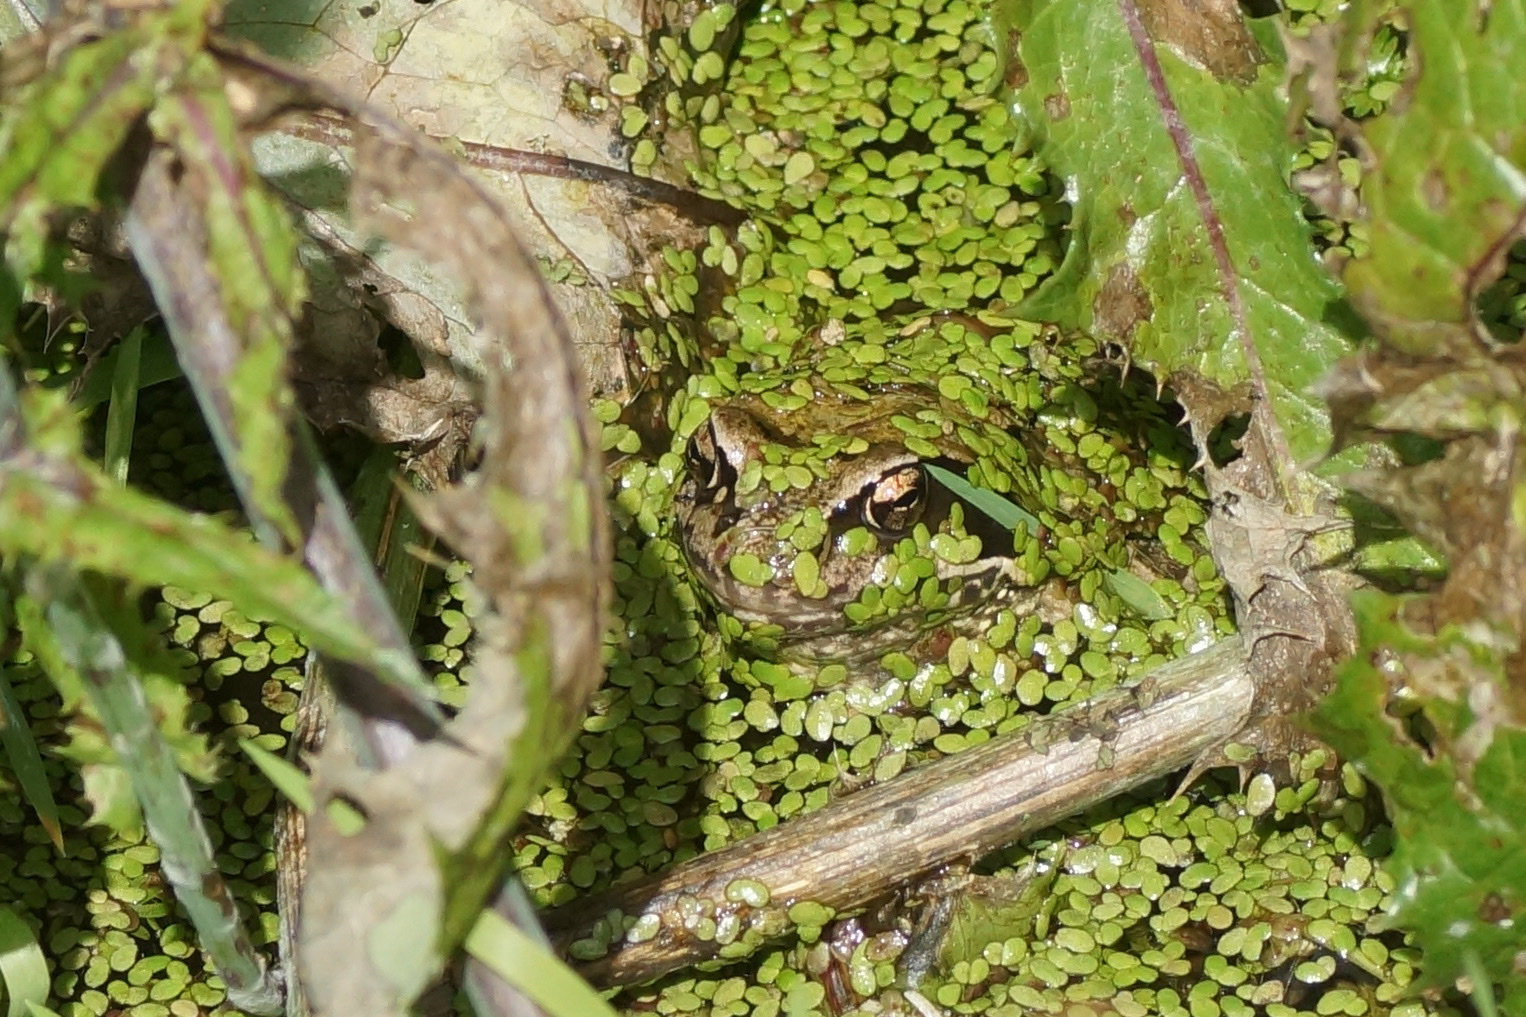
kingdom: Animalia
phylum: Chordata
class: Amphibia
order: Anura
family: Ranidae
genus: Rana
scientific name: Rana temporaria
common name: Common frog
